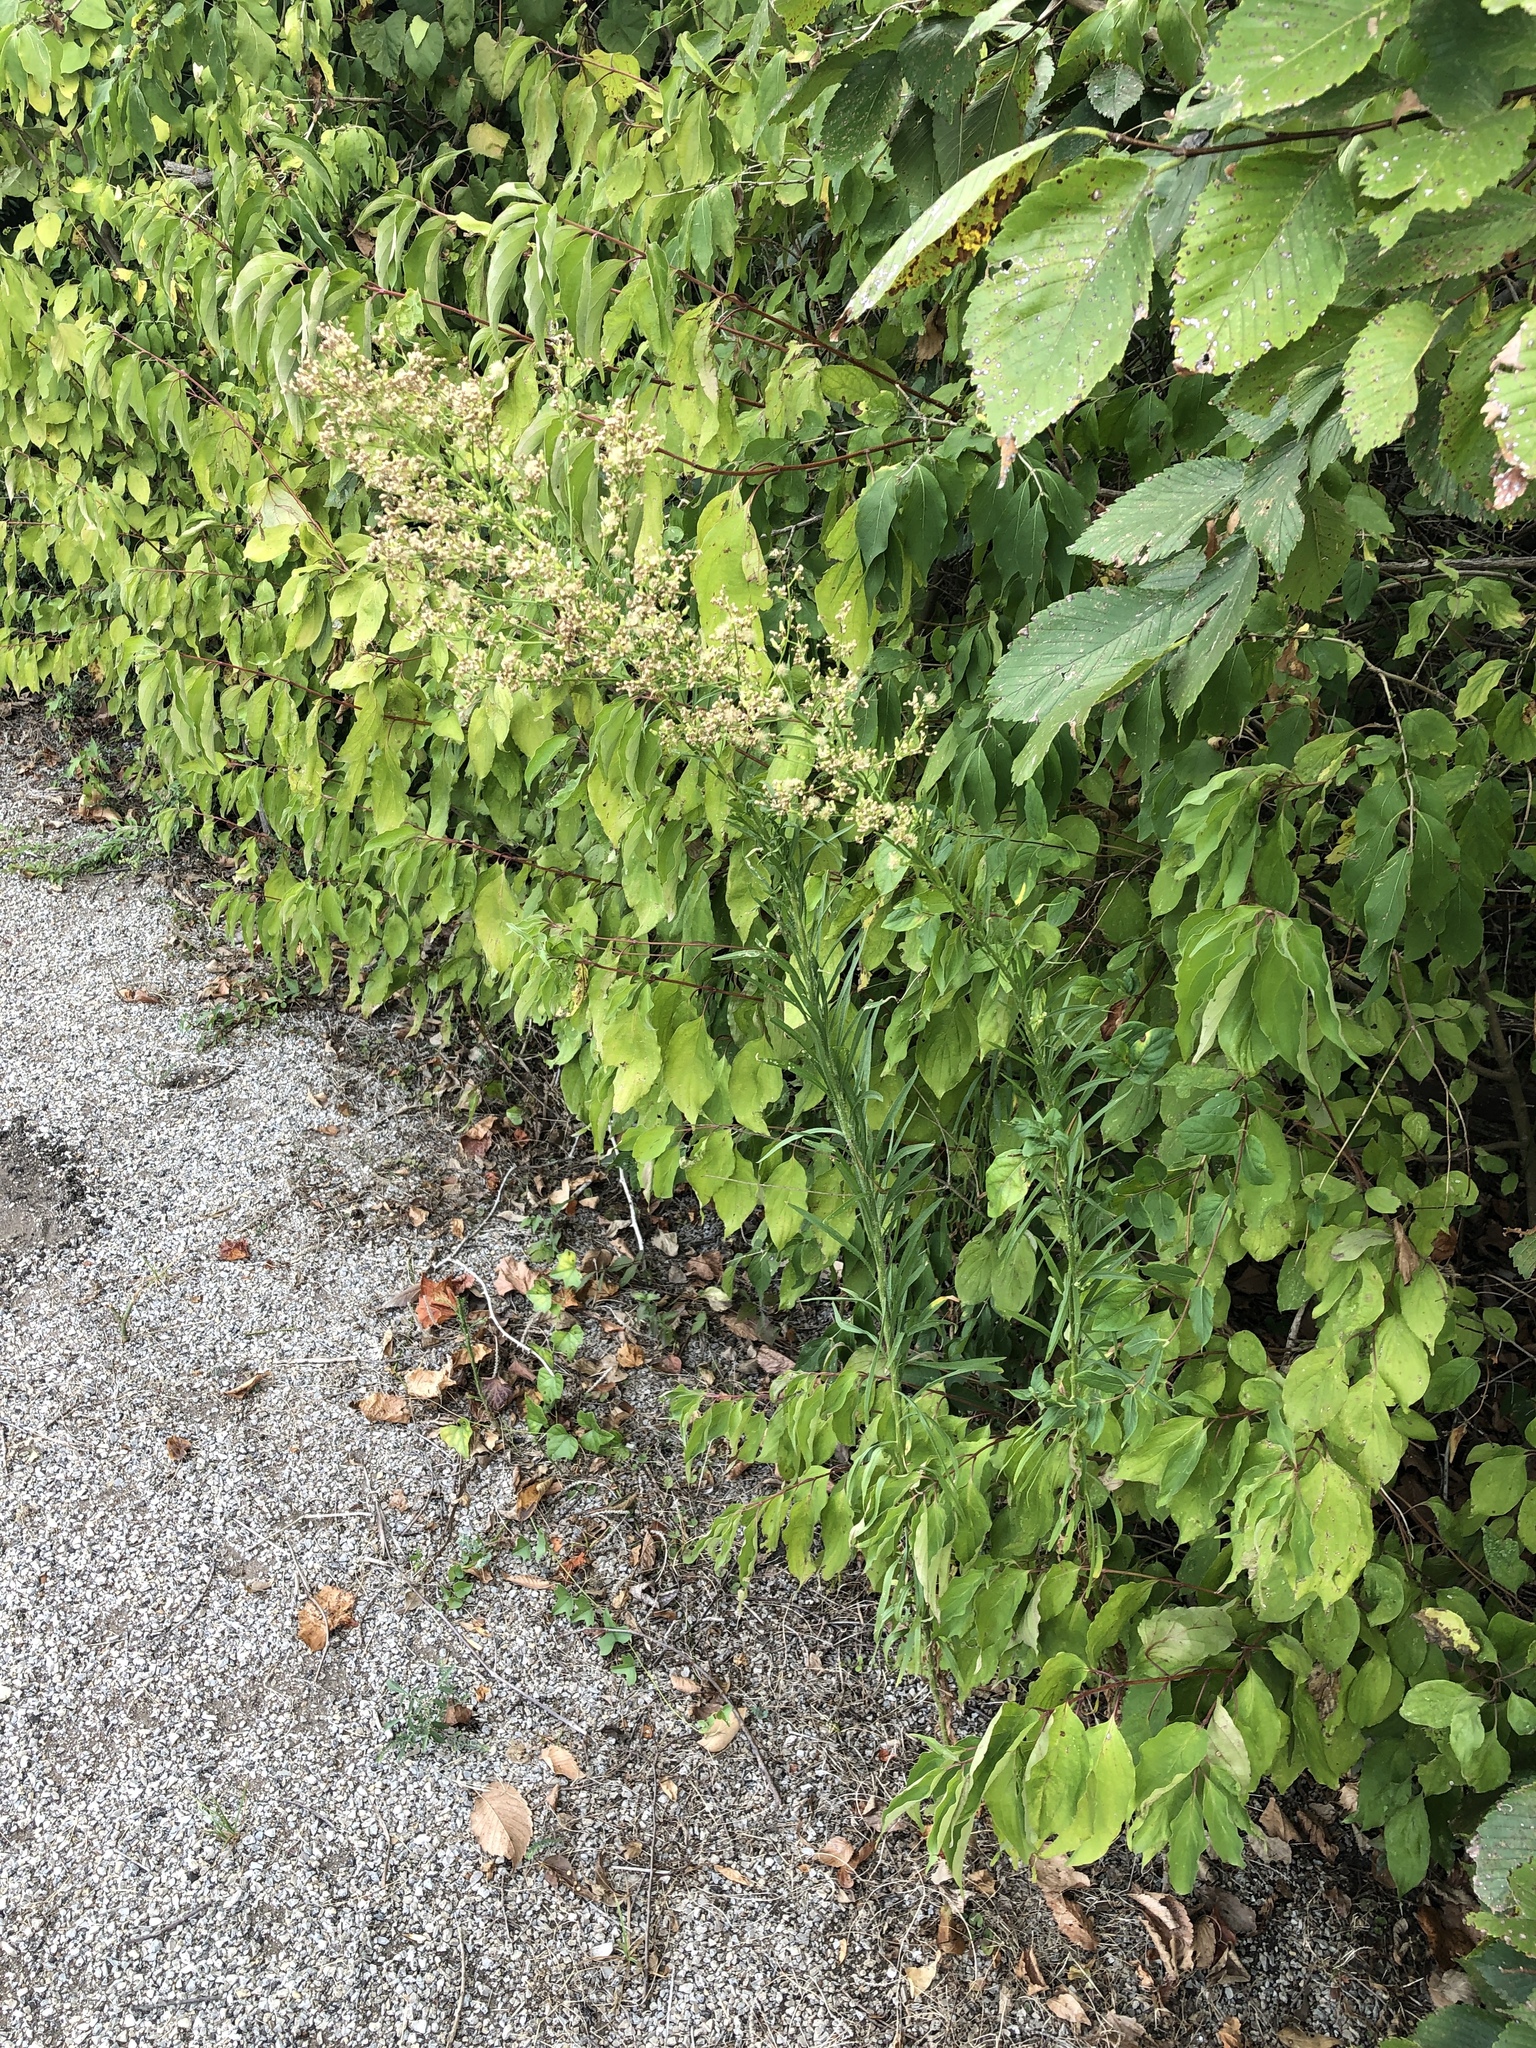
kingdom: Plantae
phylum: Tracheophyta
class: Magnoliopsida
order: Asterales
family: Asteraceae
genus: Erigeron
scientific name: Erigeron canadensis
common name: Canadian fleabane
